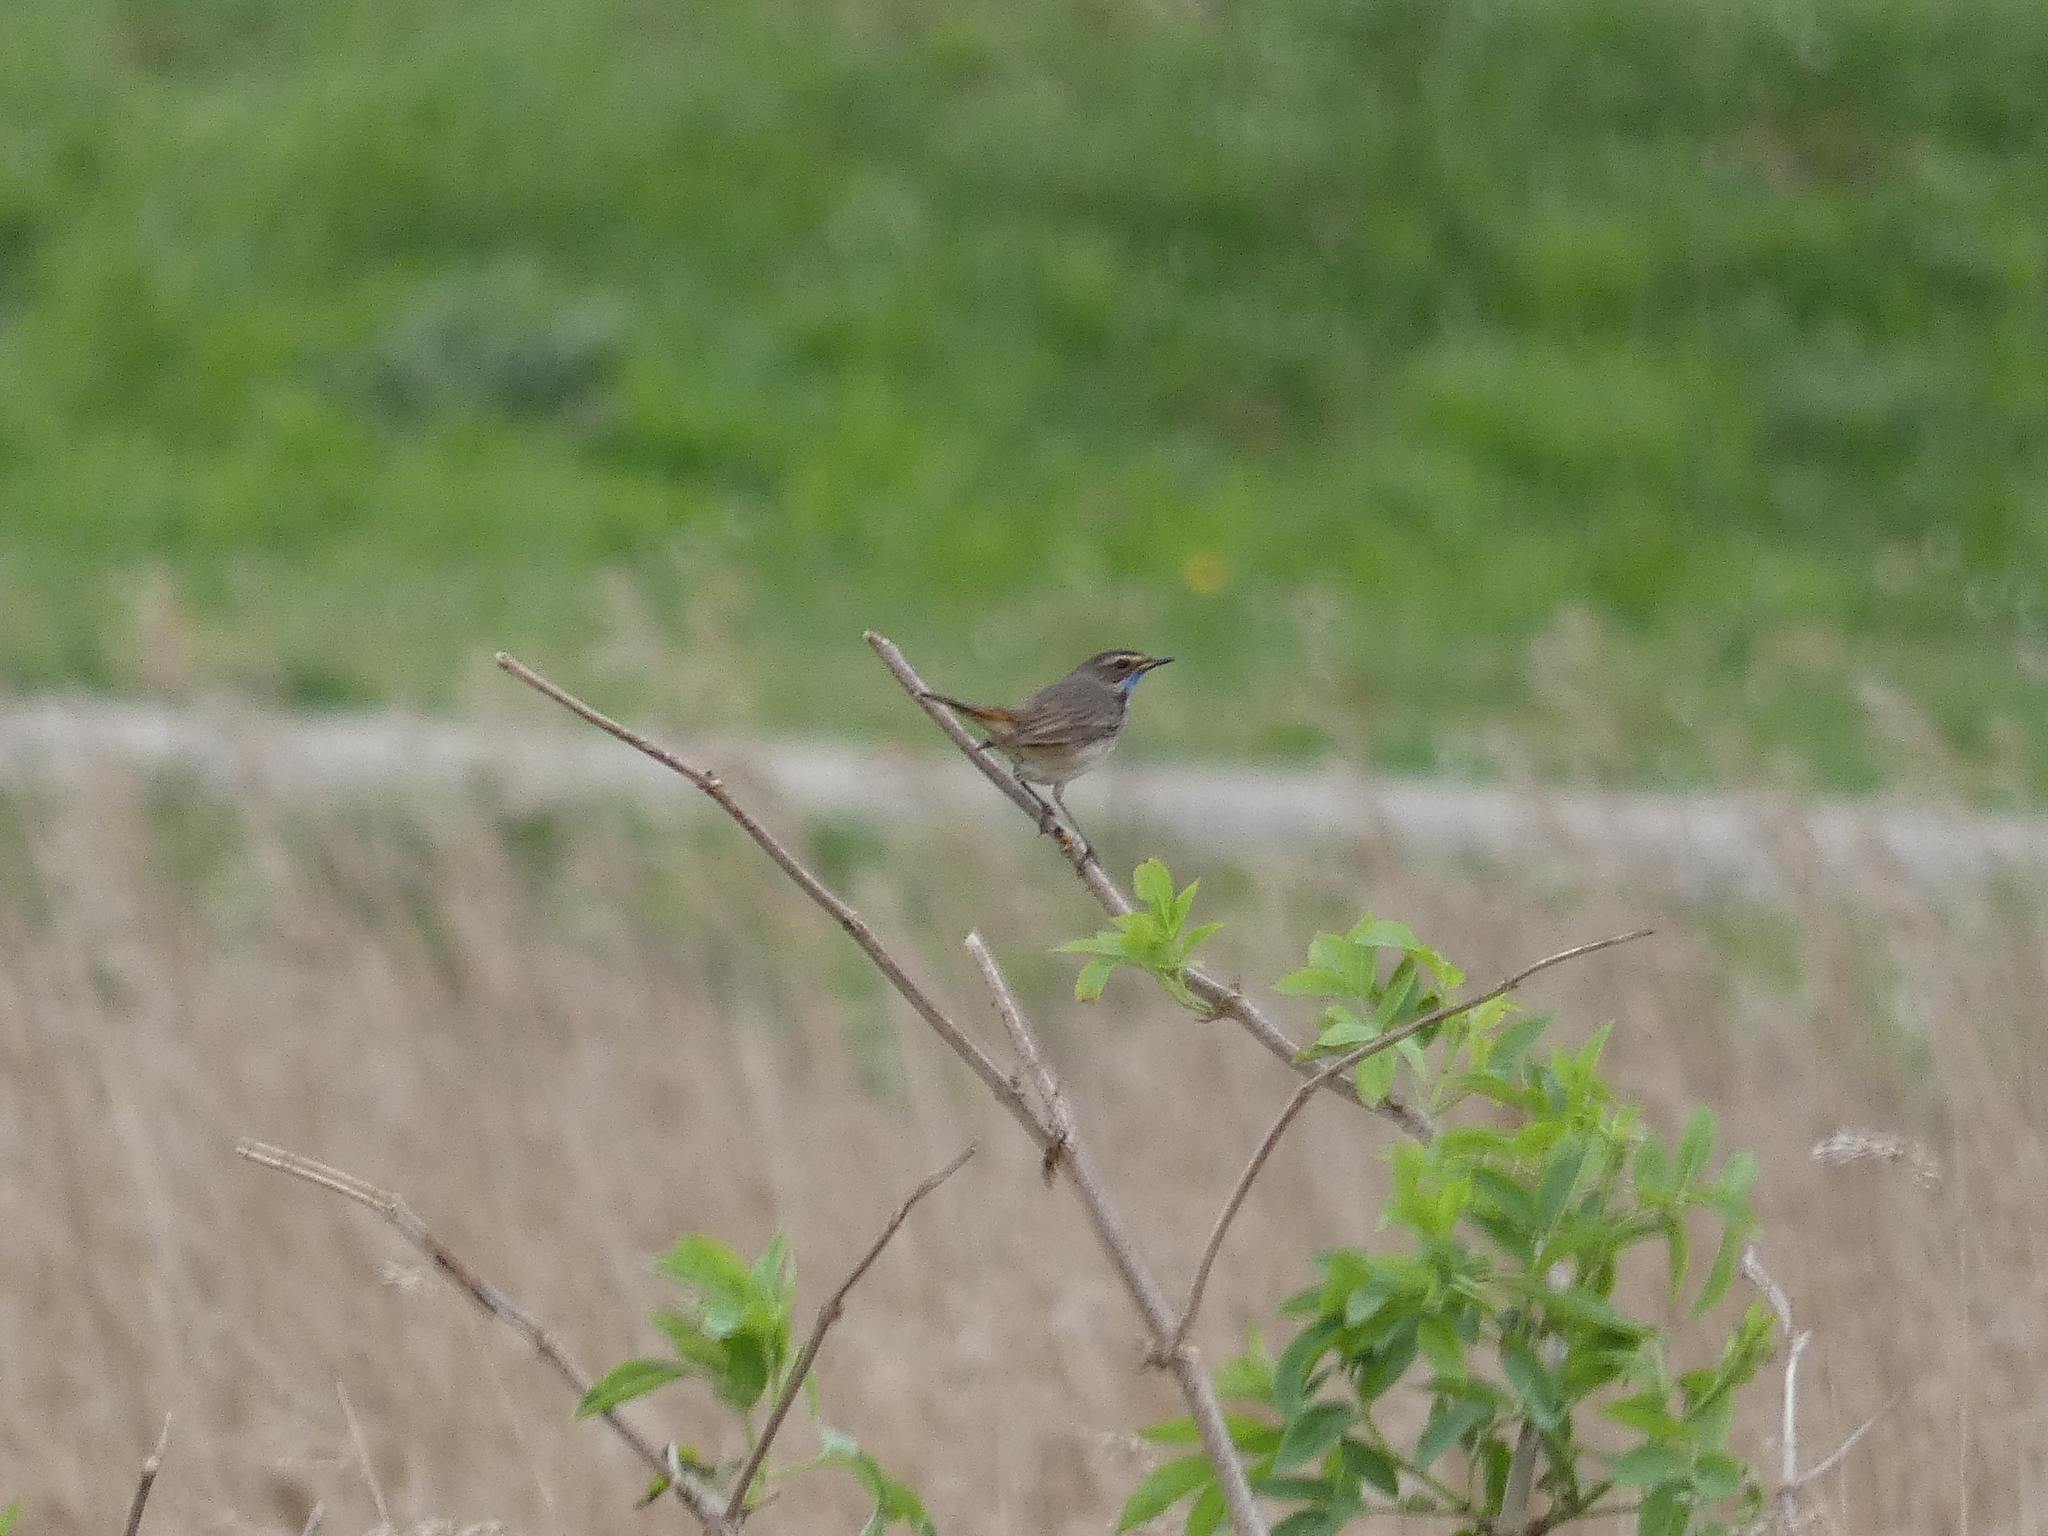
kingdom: Animalia
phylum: Chordata
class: Aves
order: Passeriformes
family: Muscicapidae
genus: Luscinia
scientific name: Luscinia svecica
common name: Bluethroat
